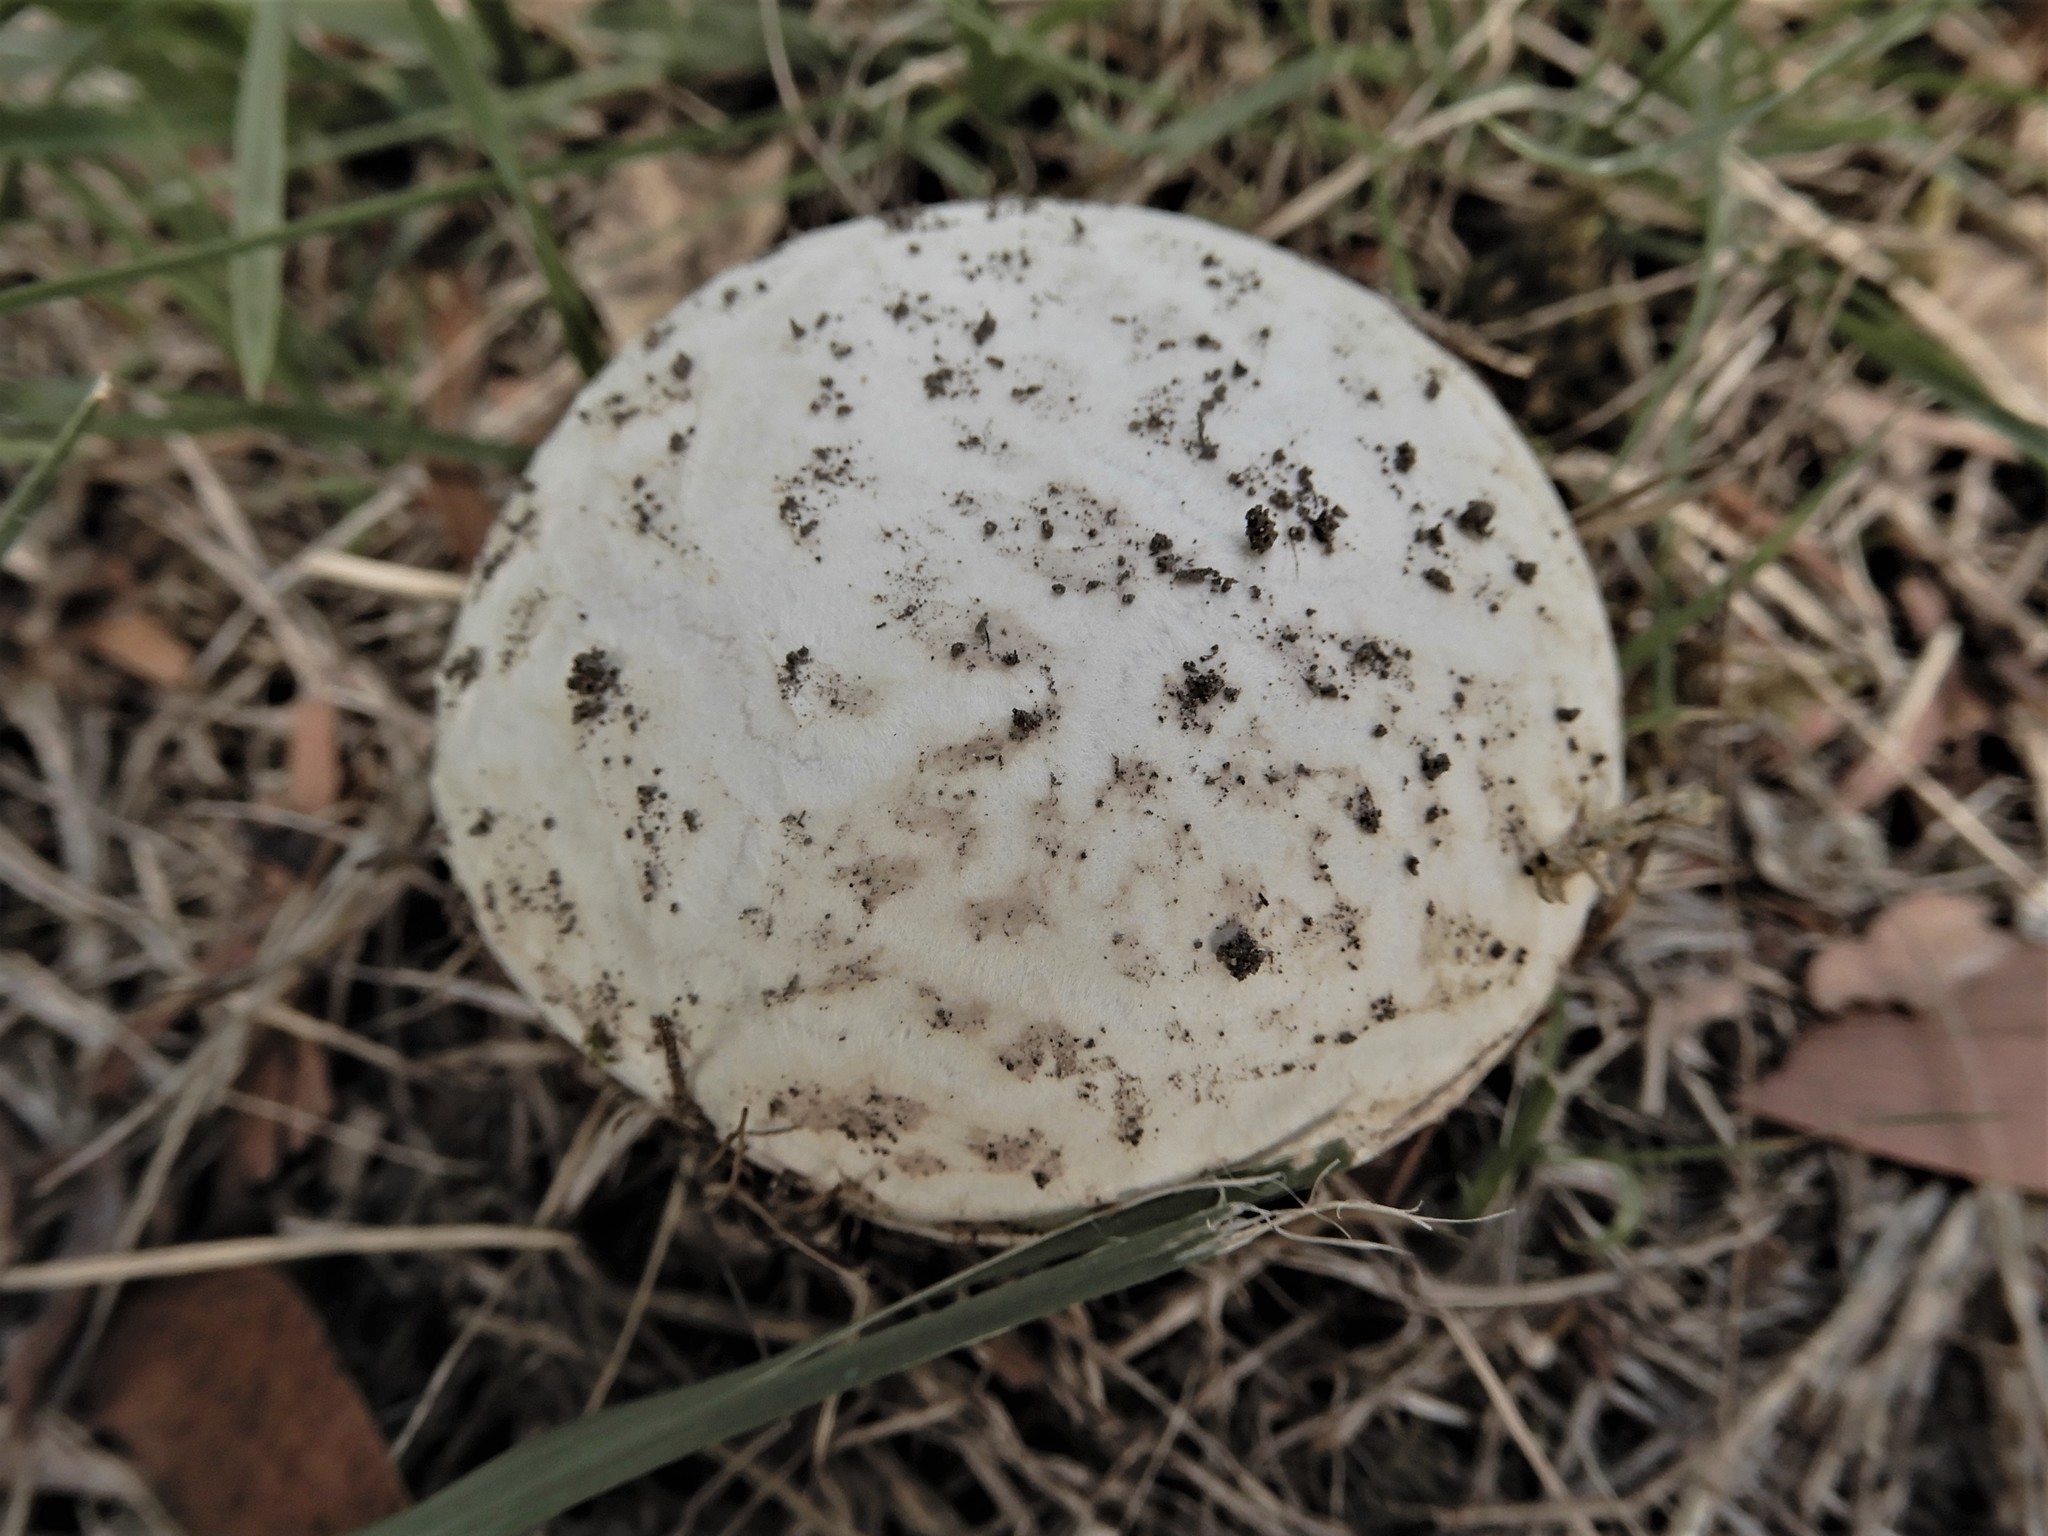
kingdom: Fungi
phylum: Basidiomycota
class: Agaricomycetes
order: Agaricales
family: Lycoperdaceae
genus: Calvatia
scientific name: Calvatia lilacina
